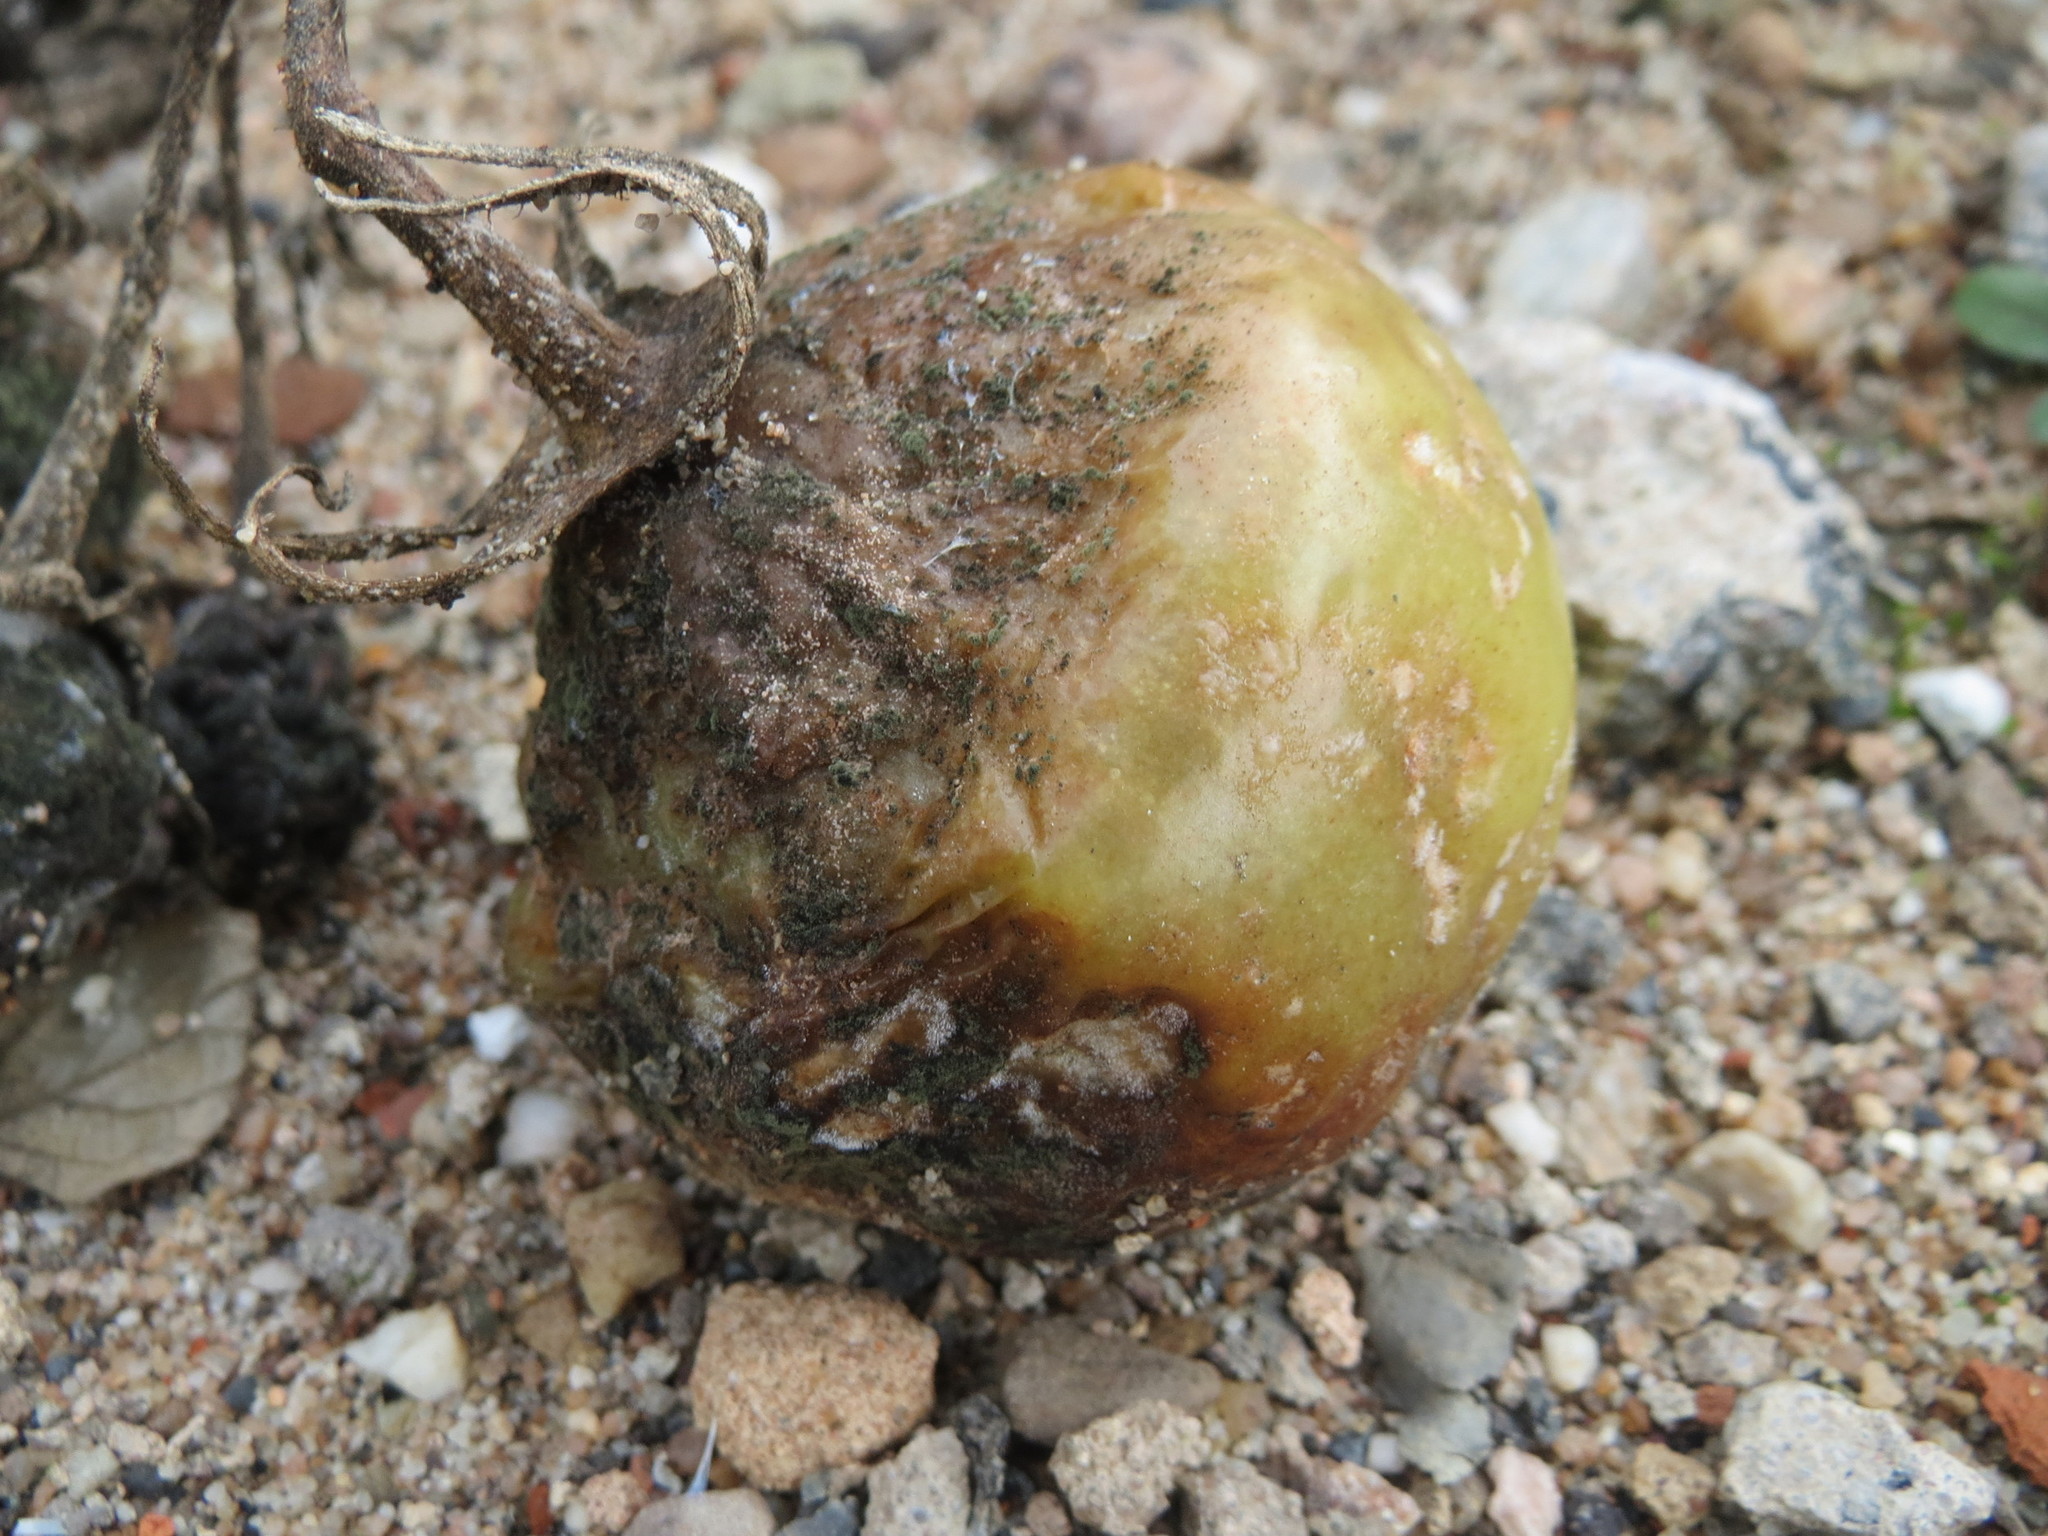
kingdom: Plantae
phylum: Tracheophyta
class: Magnoliopsida
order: Solanales
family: Solanaceae
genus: Solanum
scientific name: Solanum lycopersicum
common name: Garden tomato
